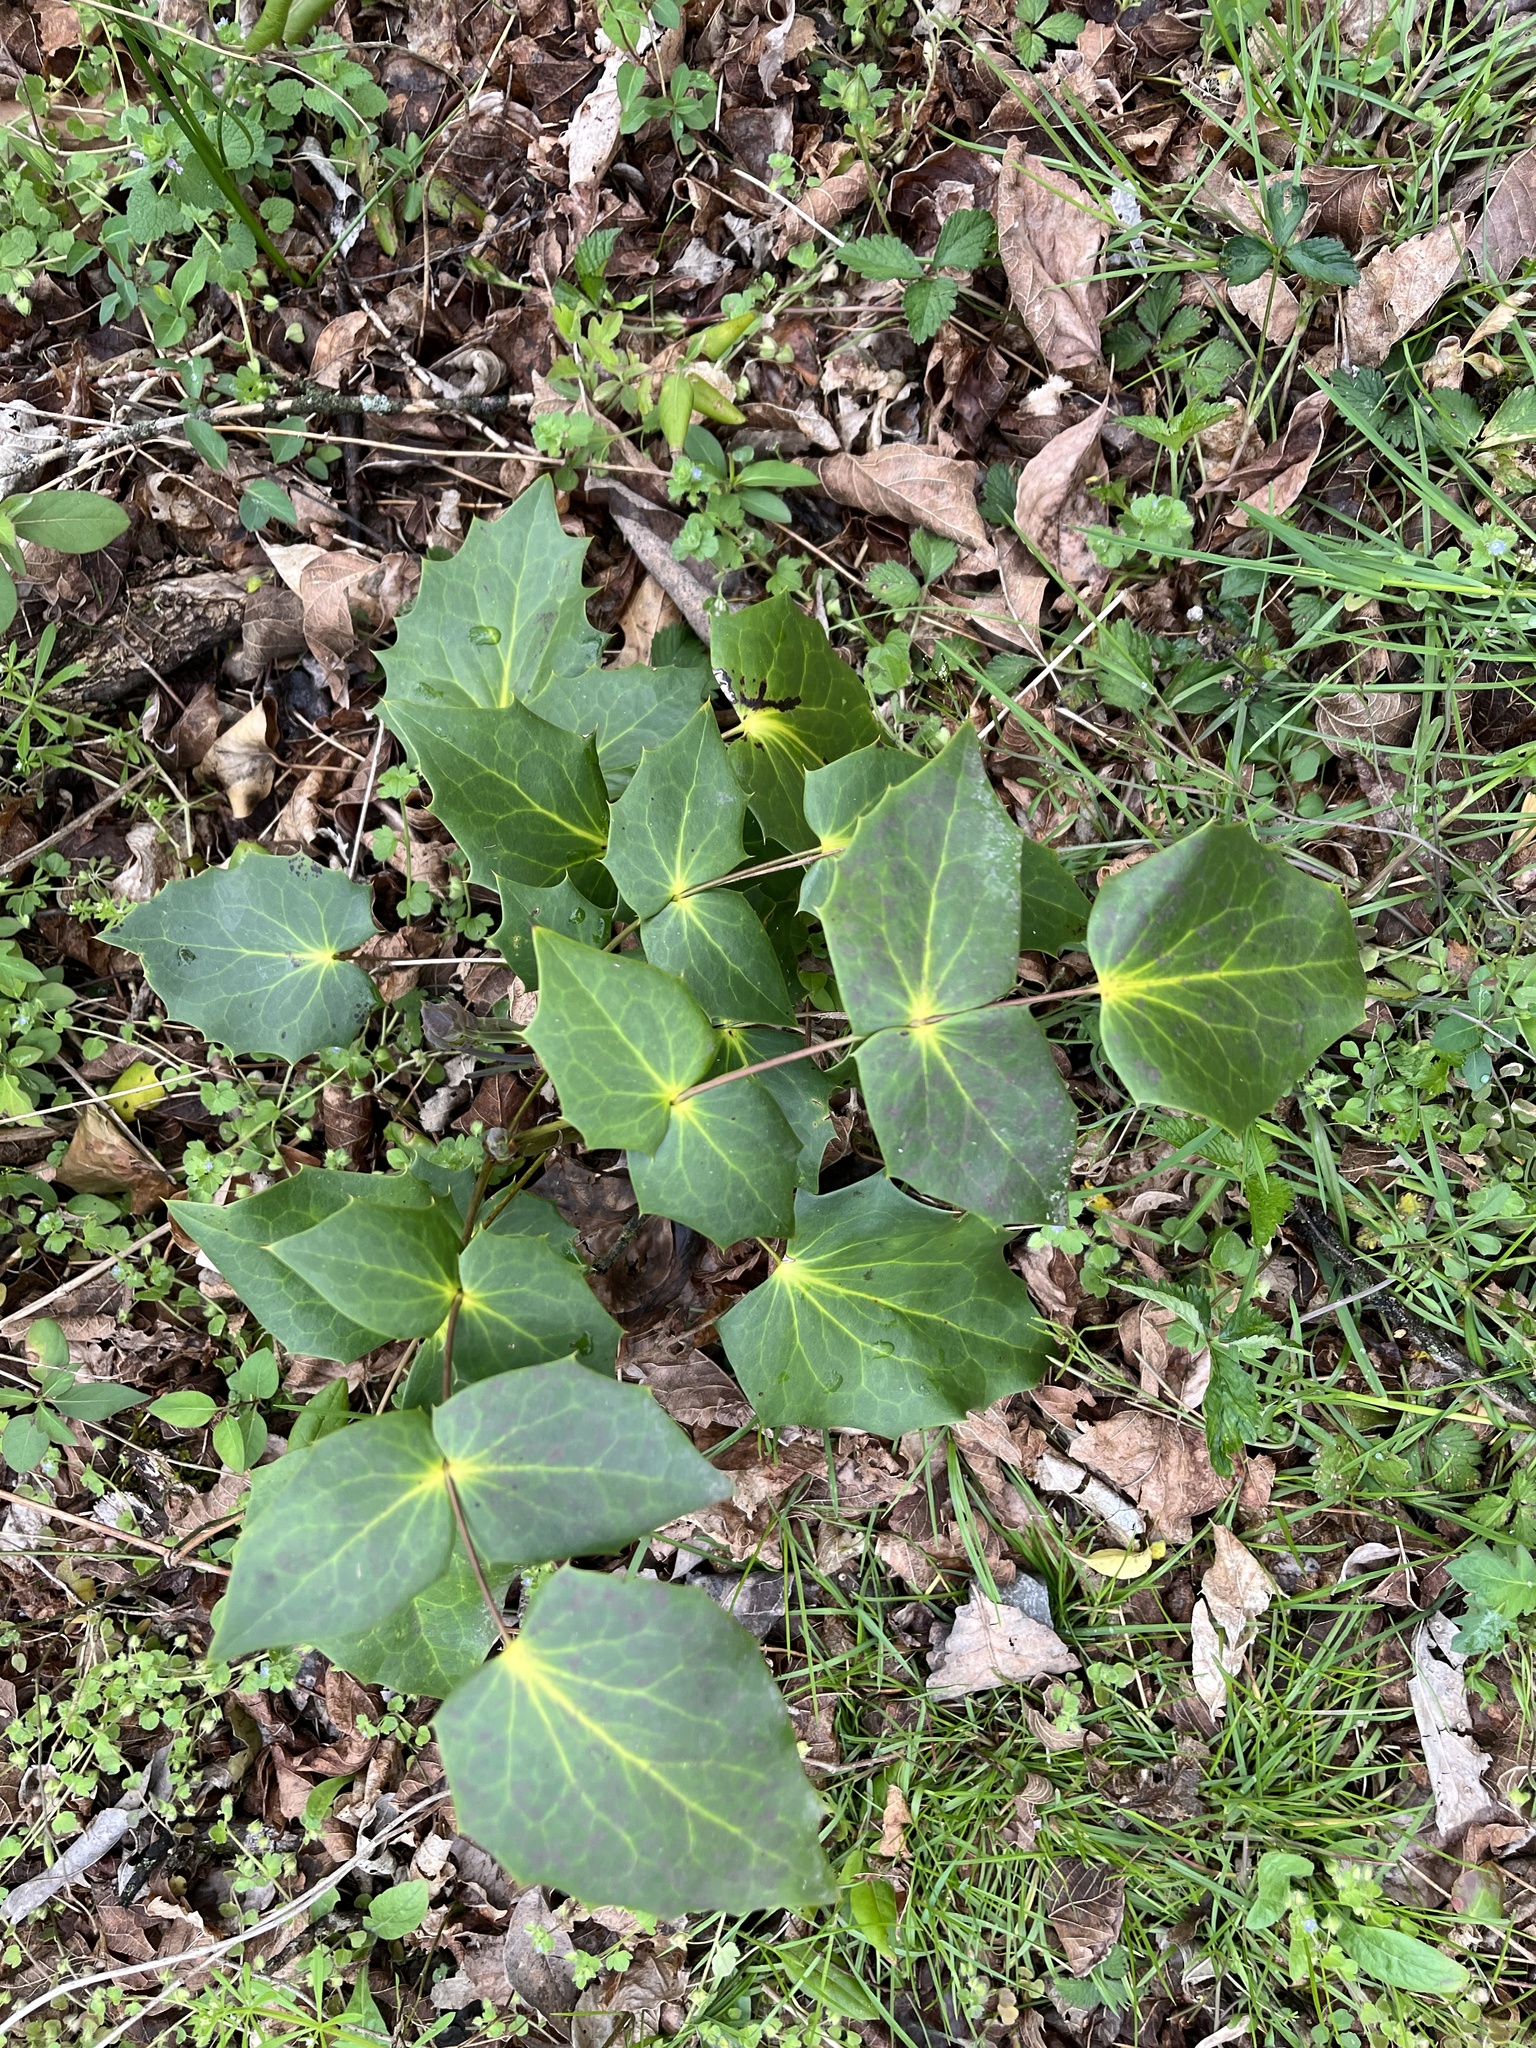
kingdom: Plantae
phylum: Tracheophyta
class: Magnoliopsida
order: Ranunculales
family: Berberidaceae
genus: Mahonia
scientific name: Mahonia bealei
